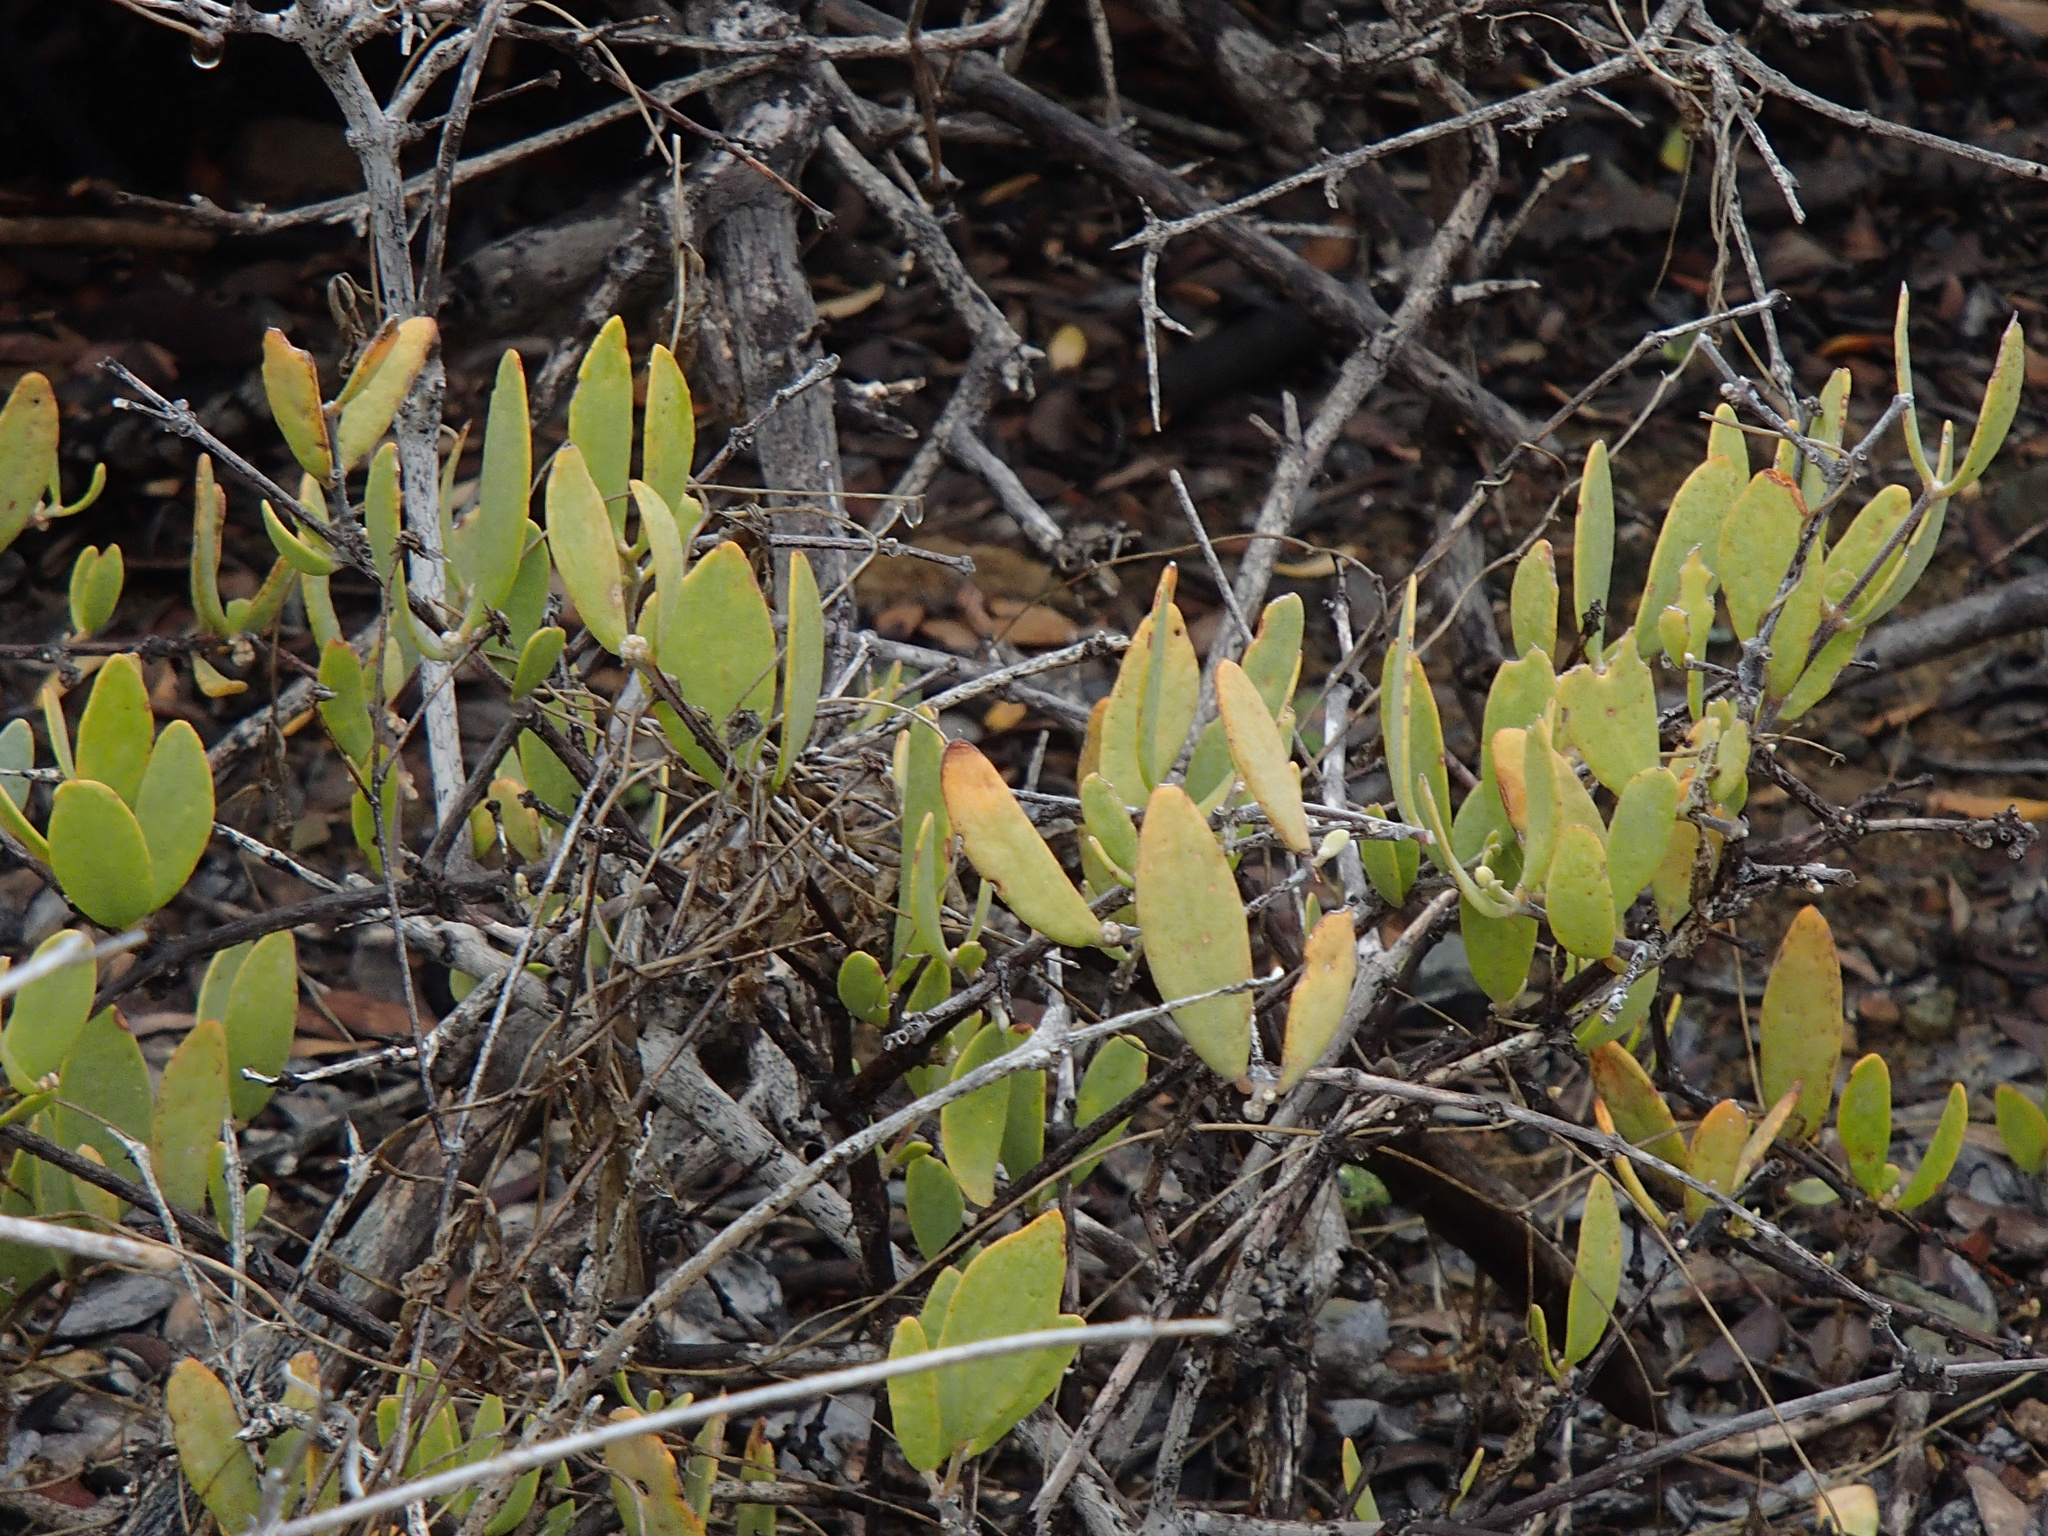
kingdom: Plantae
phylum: Tracheophyta
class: Magnoliopsida
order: Caryophyllales
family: Simmondsiaceae
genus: Simmondsia
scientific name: Simmondsia chinensis
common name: Jojoba
